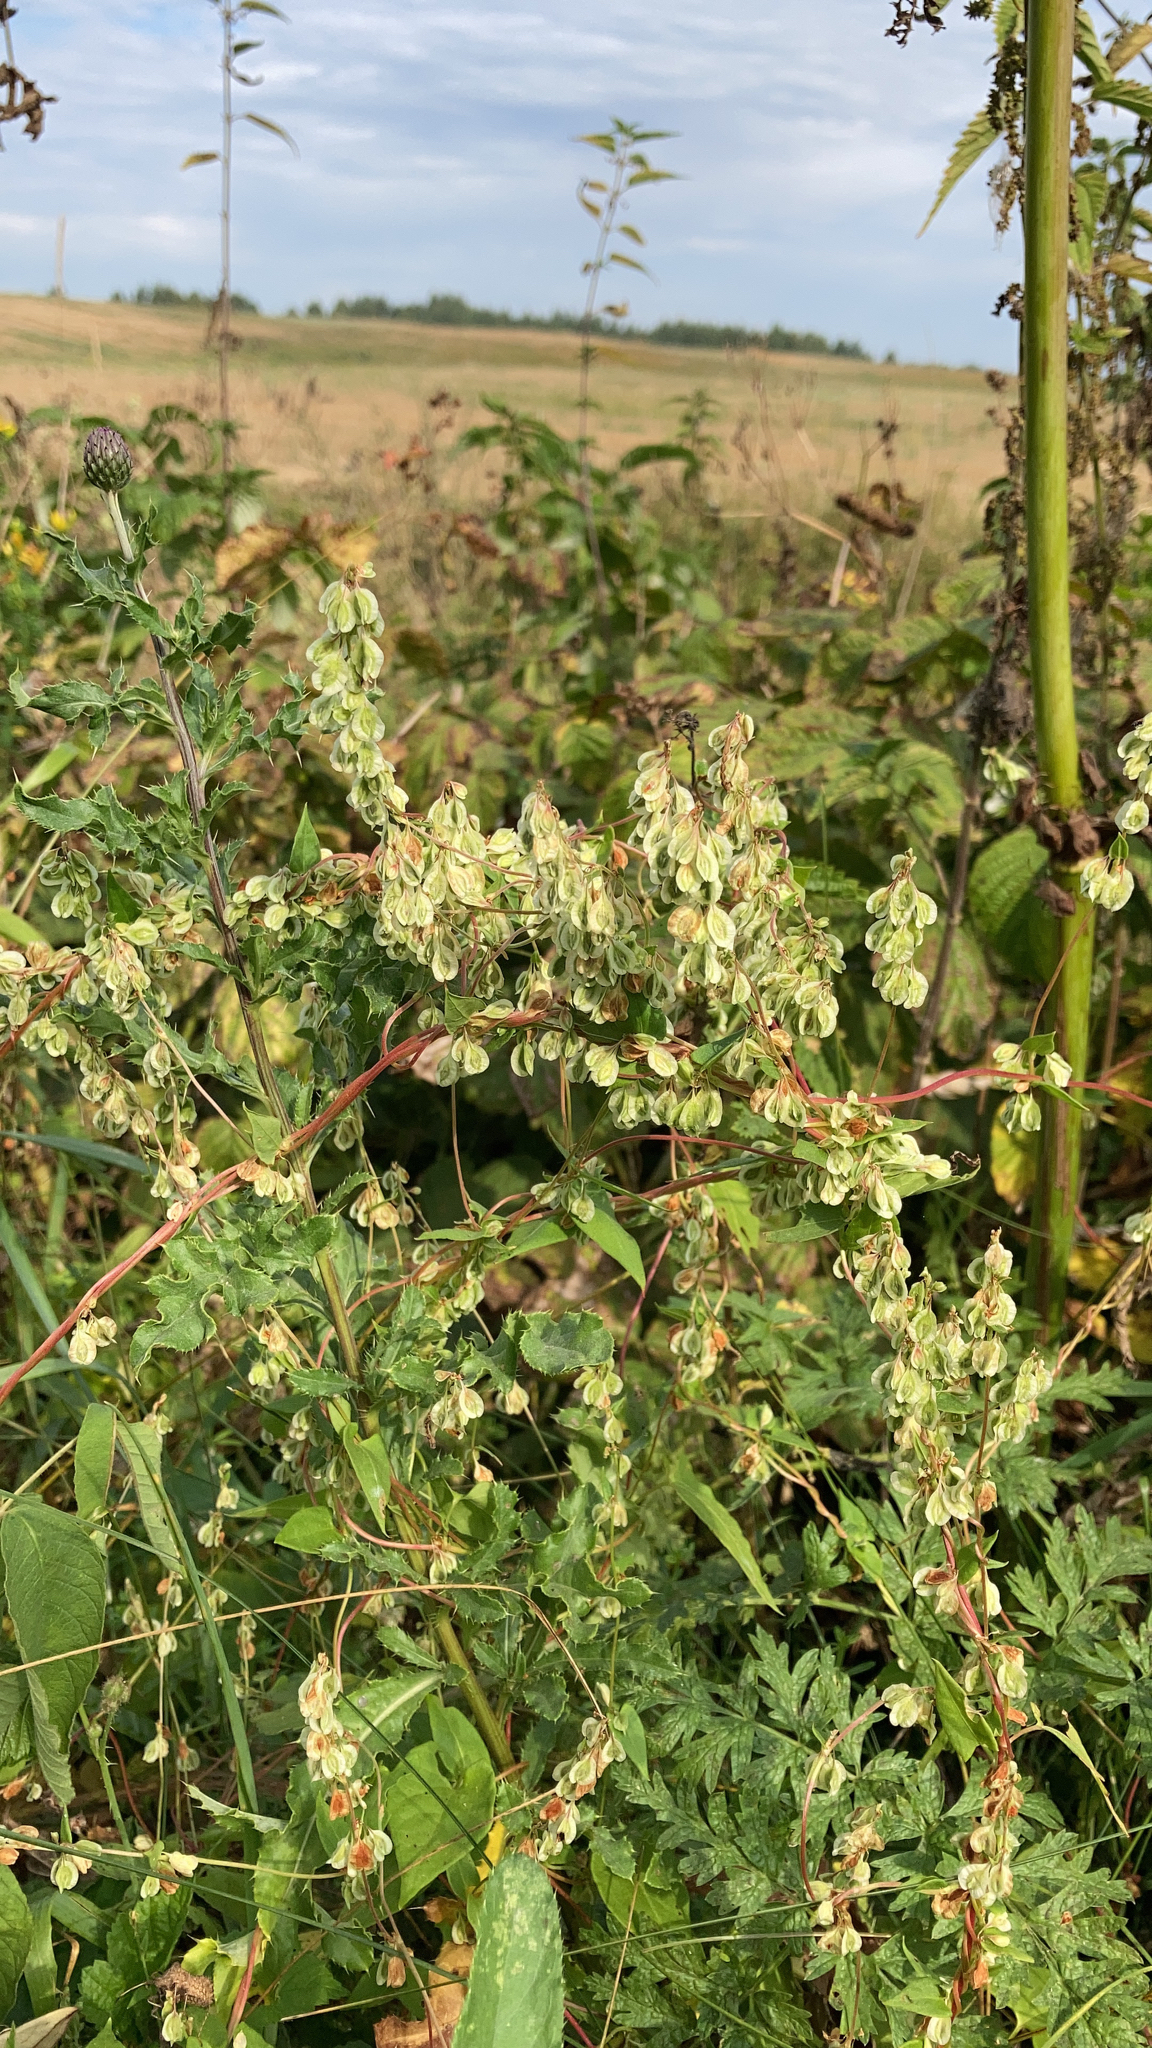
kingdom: Plantae
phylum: Tracheophyta
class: Magnoliopsida
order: Caryophyllales
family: Polygonaceae
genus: Fallopia
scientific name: Fallopia dumetorum
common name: Copse-bindweed
